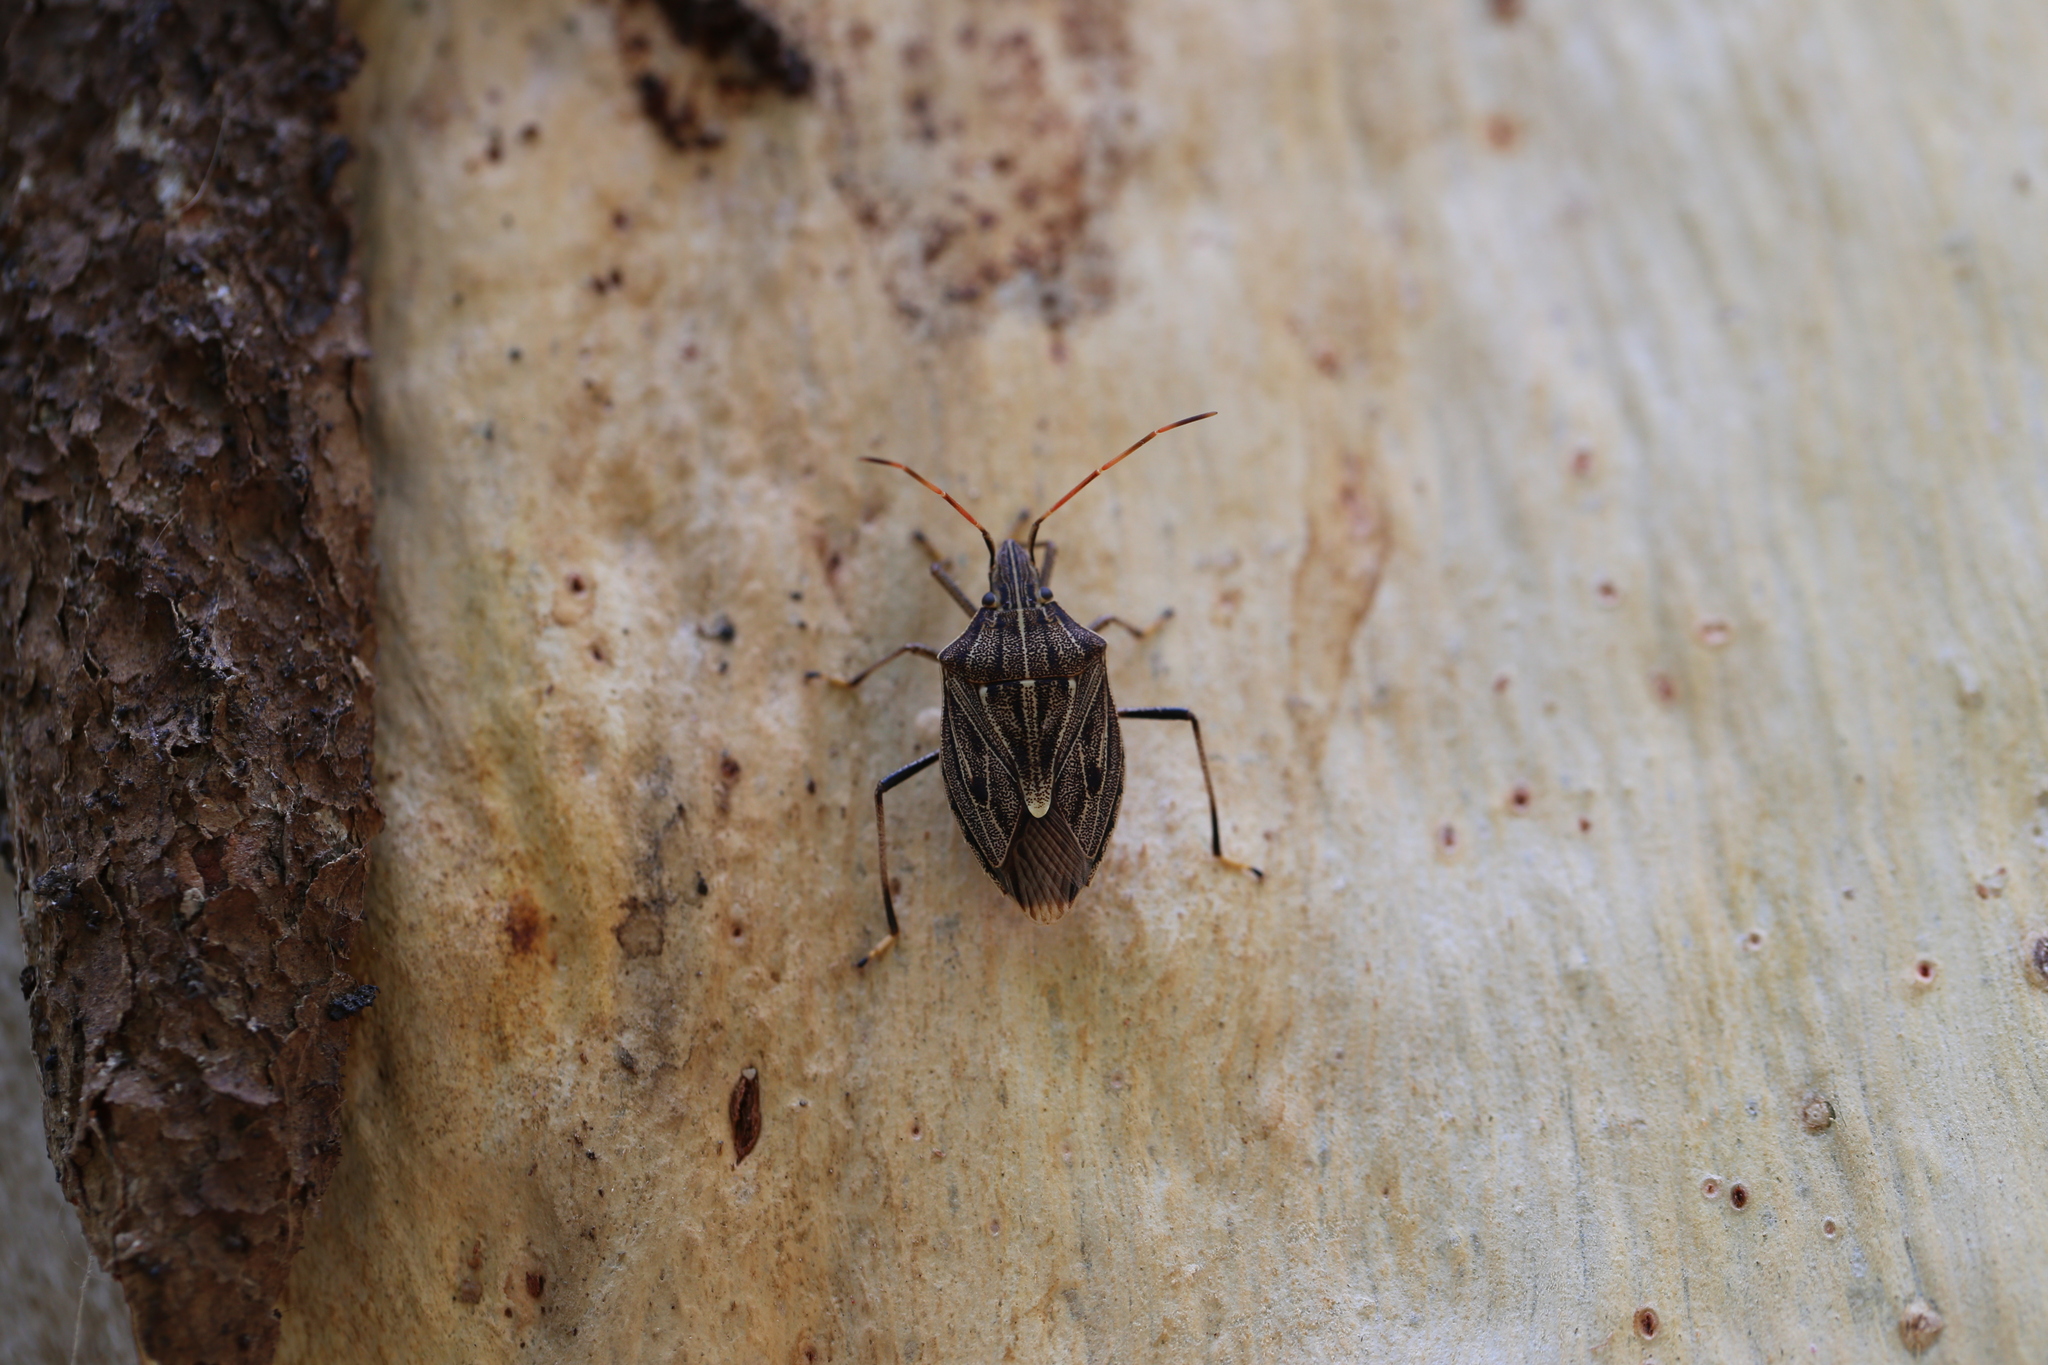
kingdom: Animalia
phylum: Arthropoda
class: Insecta
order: Hemiptera
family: Pentatomidae
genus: Poecilometis
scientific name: Poecilometis
